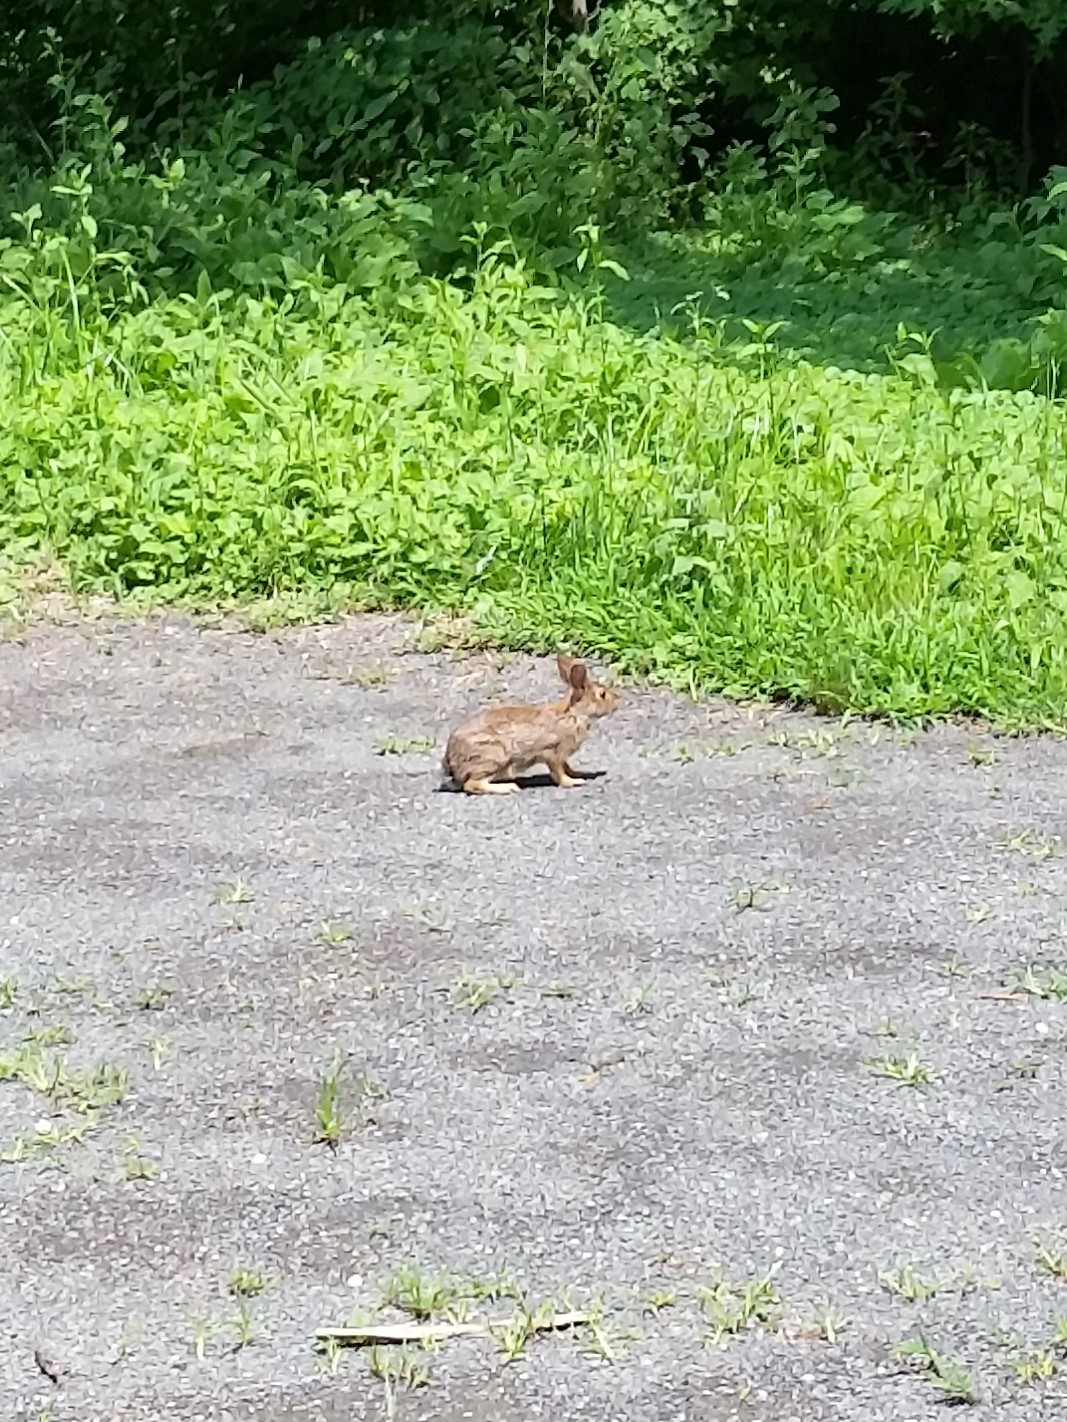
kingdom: Animalia
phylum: Chordata
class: Mammalia
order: Lagomorpha
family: Leporidae
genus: Sylvilagus
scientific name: Sylvilagus floridanus
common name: Eastern cottontail
